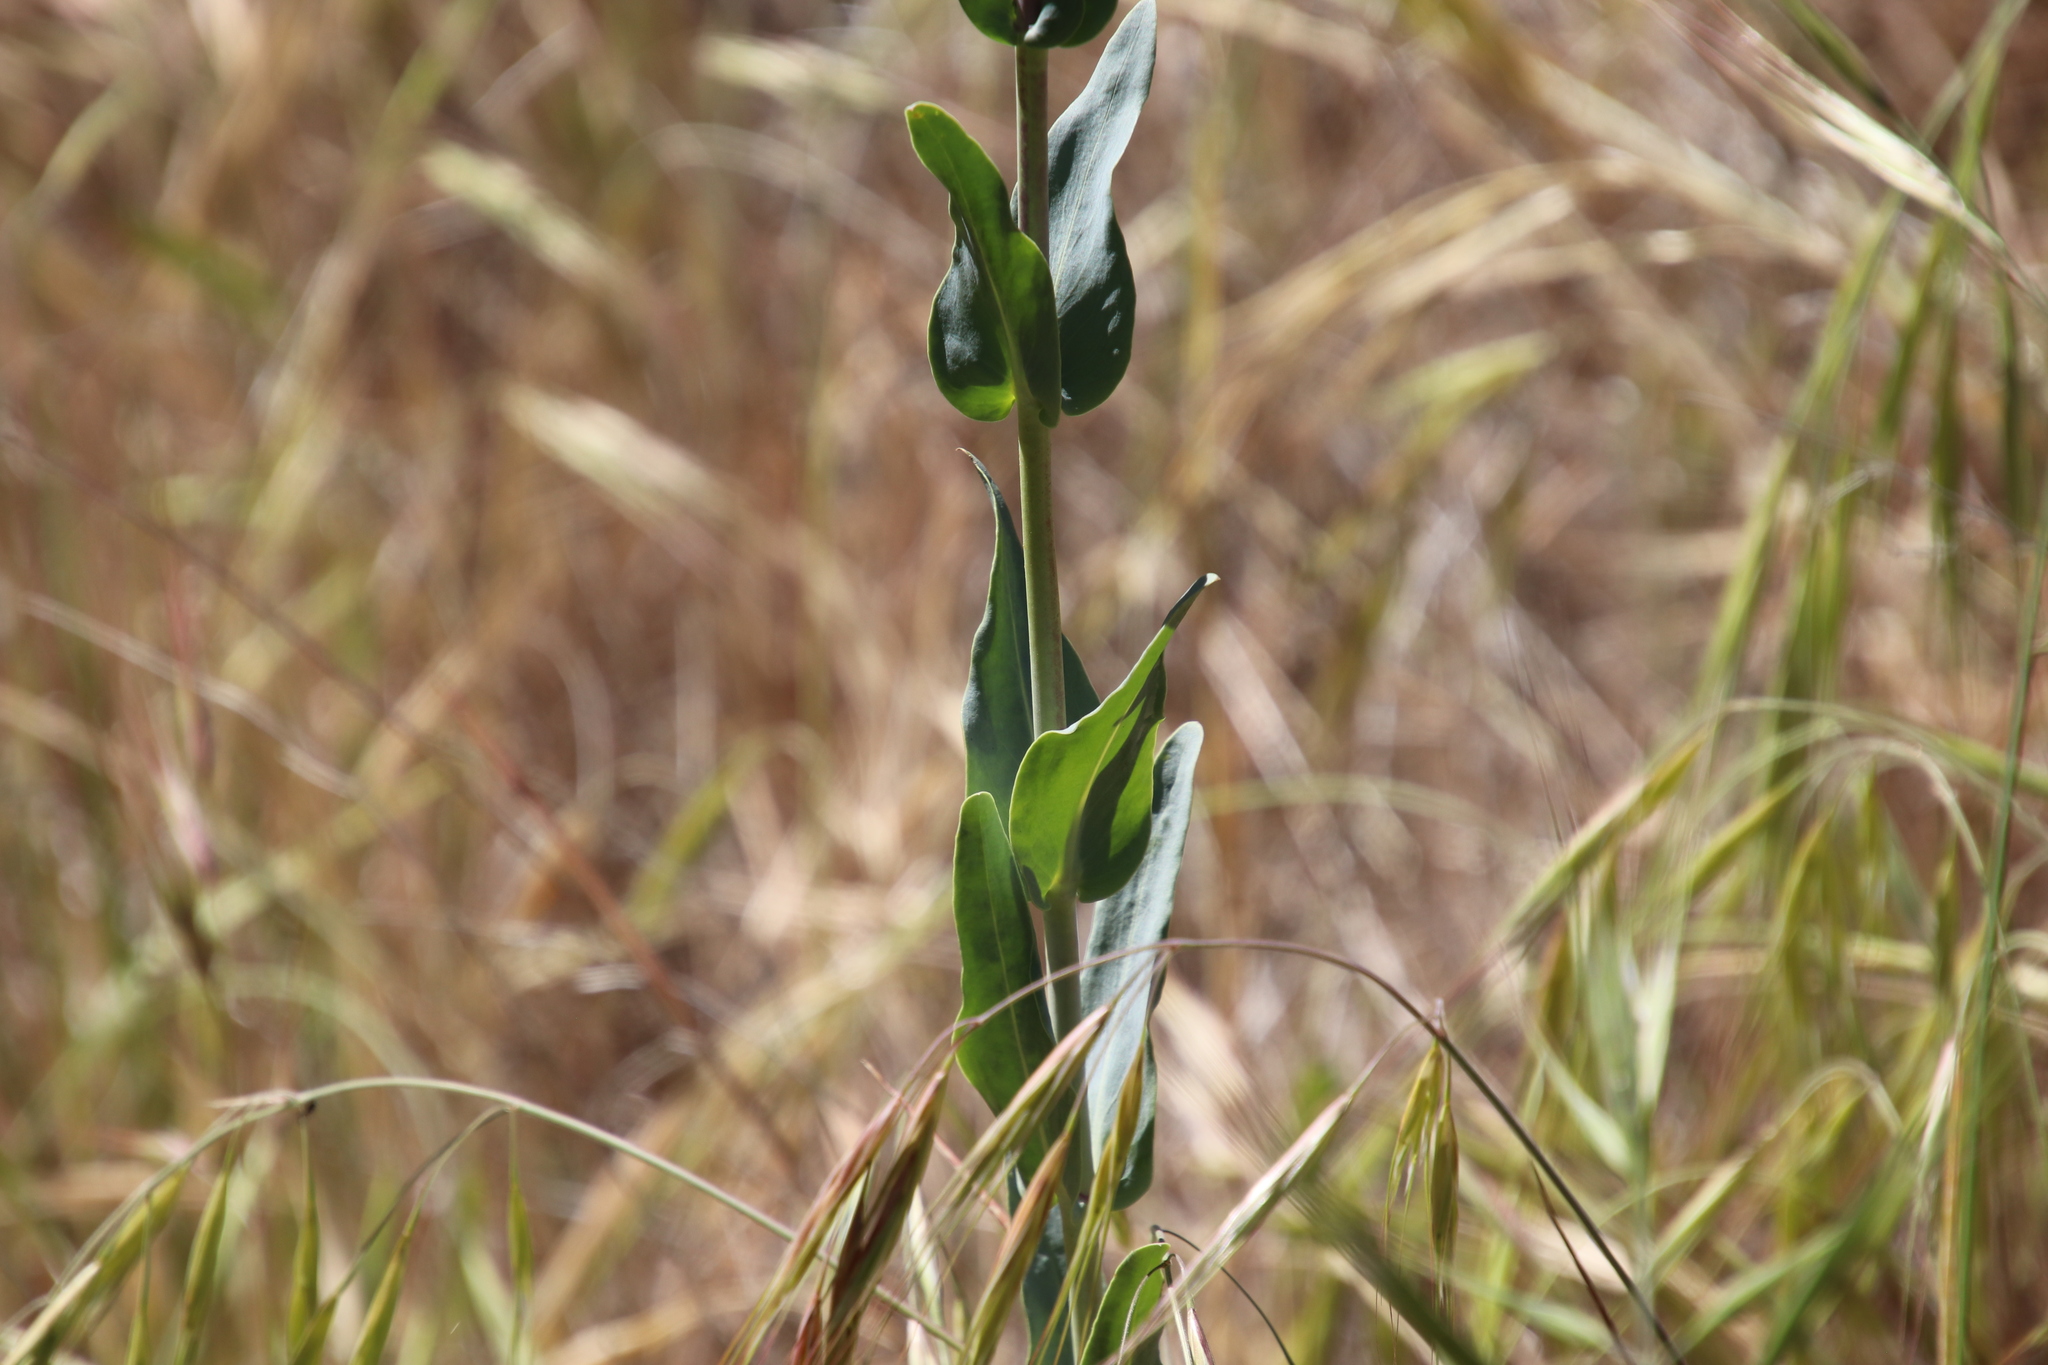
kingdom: Plantae
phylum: Tracheophyta
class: Magnoliopsida
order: Lamiales
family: Plantaginaceae
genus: Penstemon
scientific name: Penstemon centranthifolius
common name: Scarlet bugler
